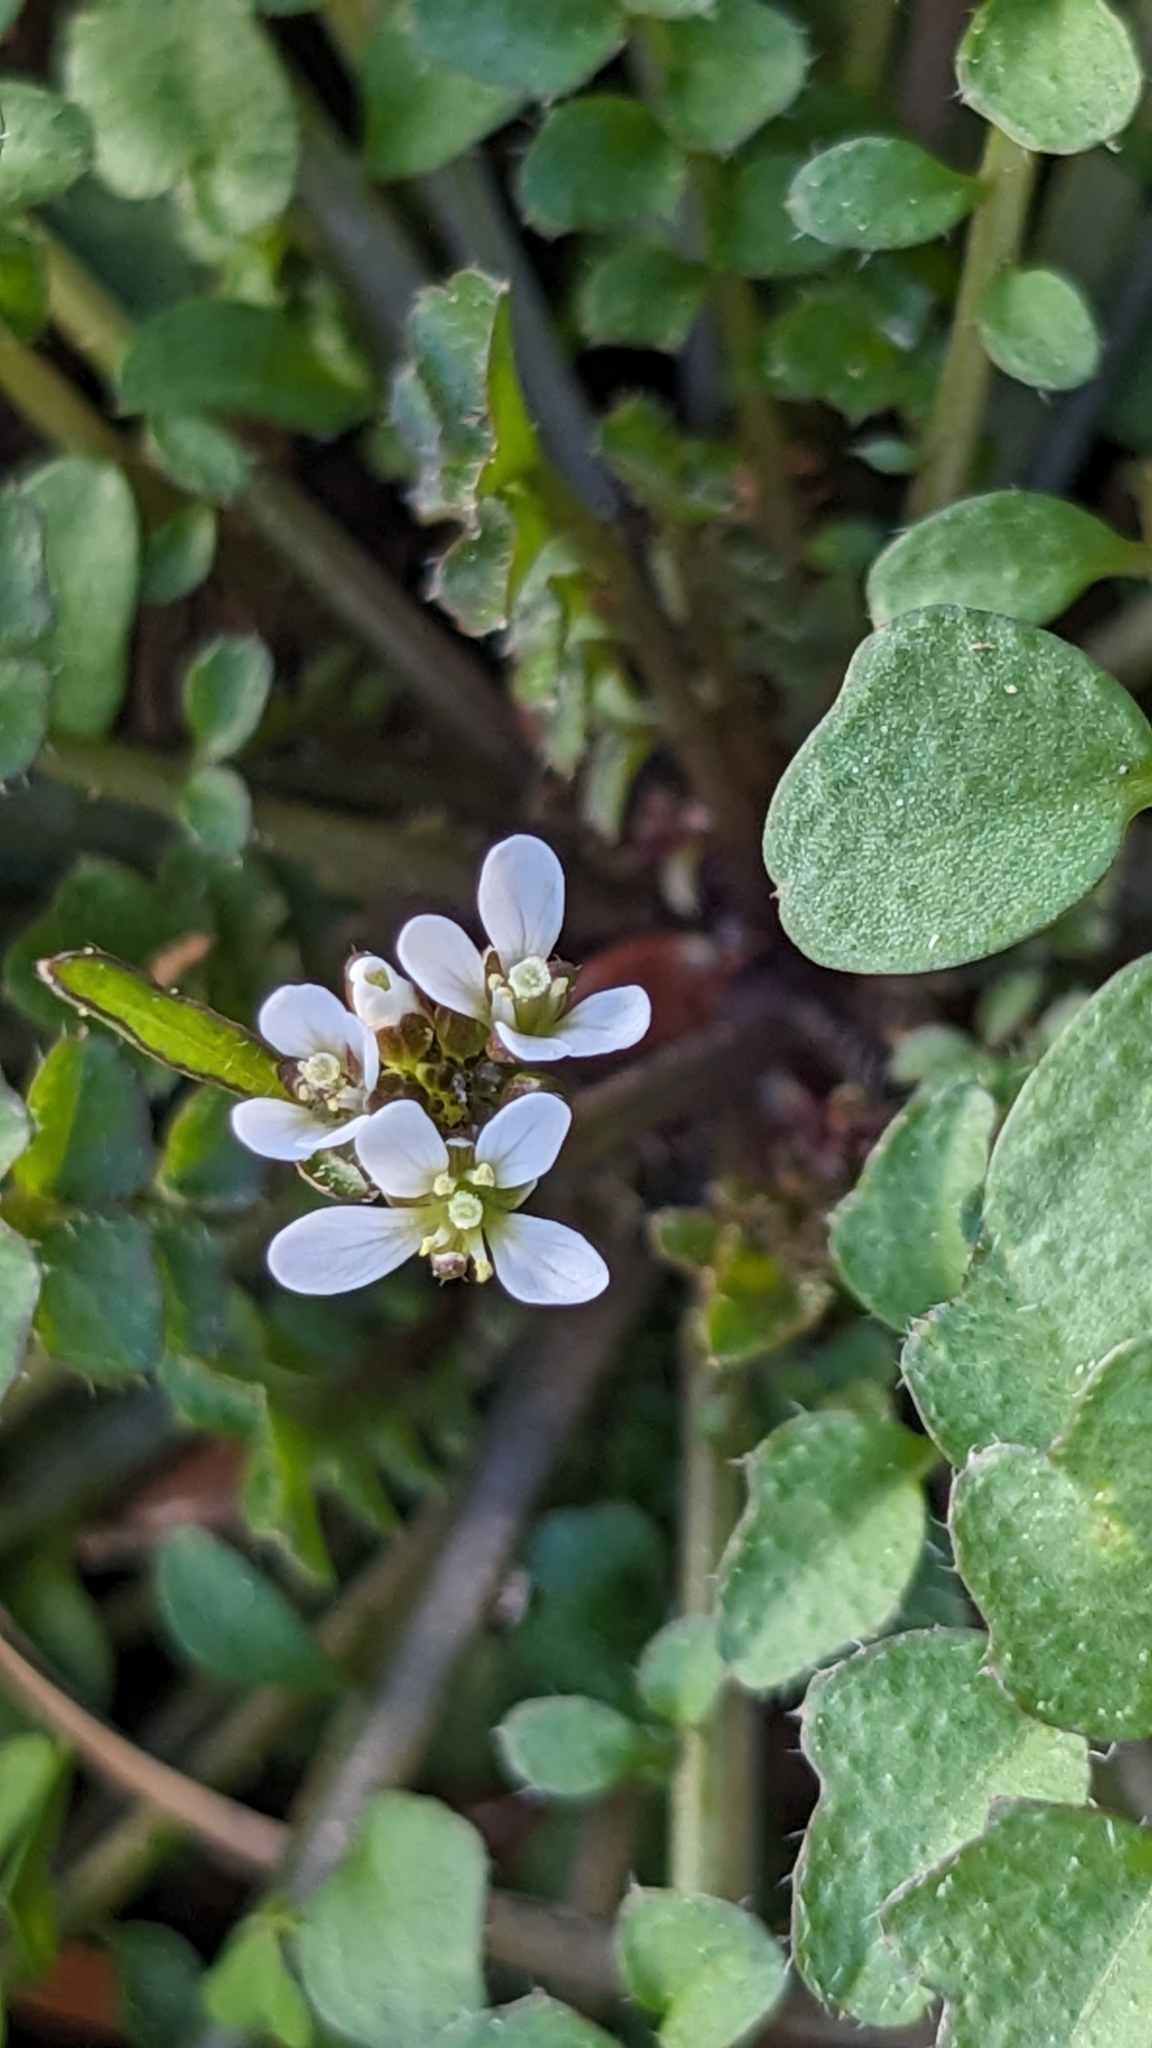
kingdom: Plantae
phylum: Tracheophyta
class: Magnoliopsida
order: Brassicales
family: Brassicaceae
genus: Cardamine
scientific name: Cardamine hirsuta
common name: Hairy bittercress
